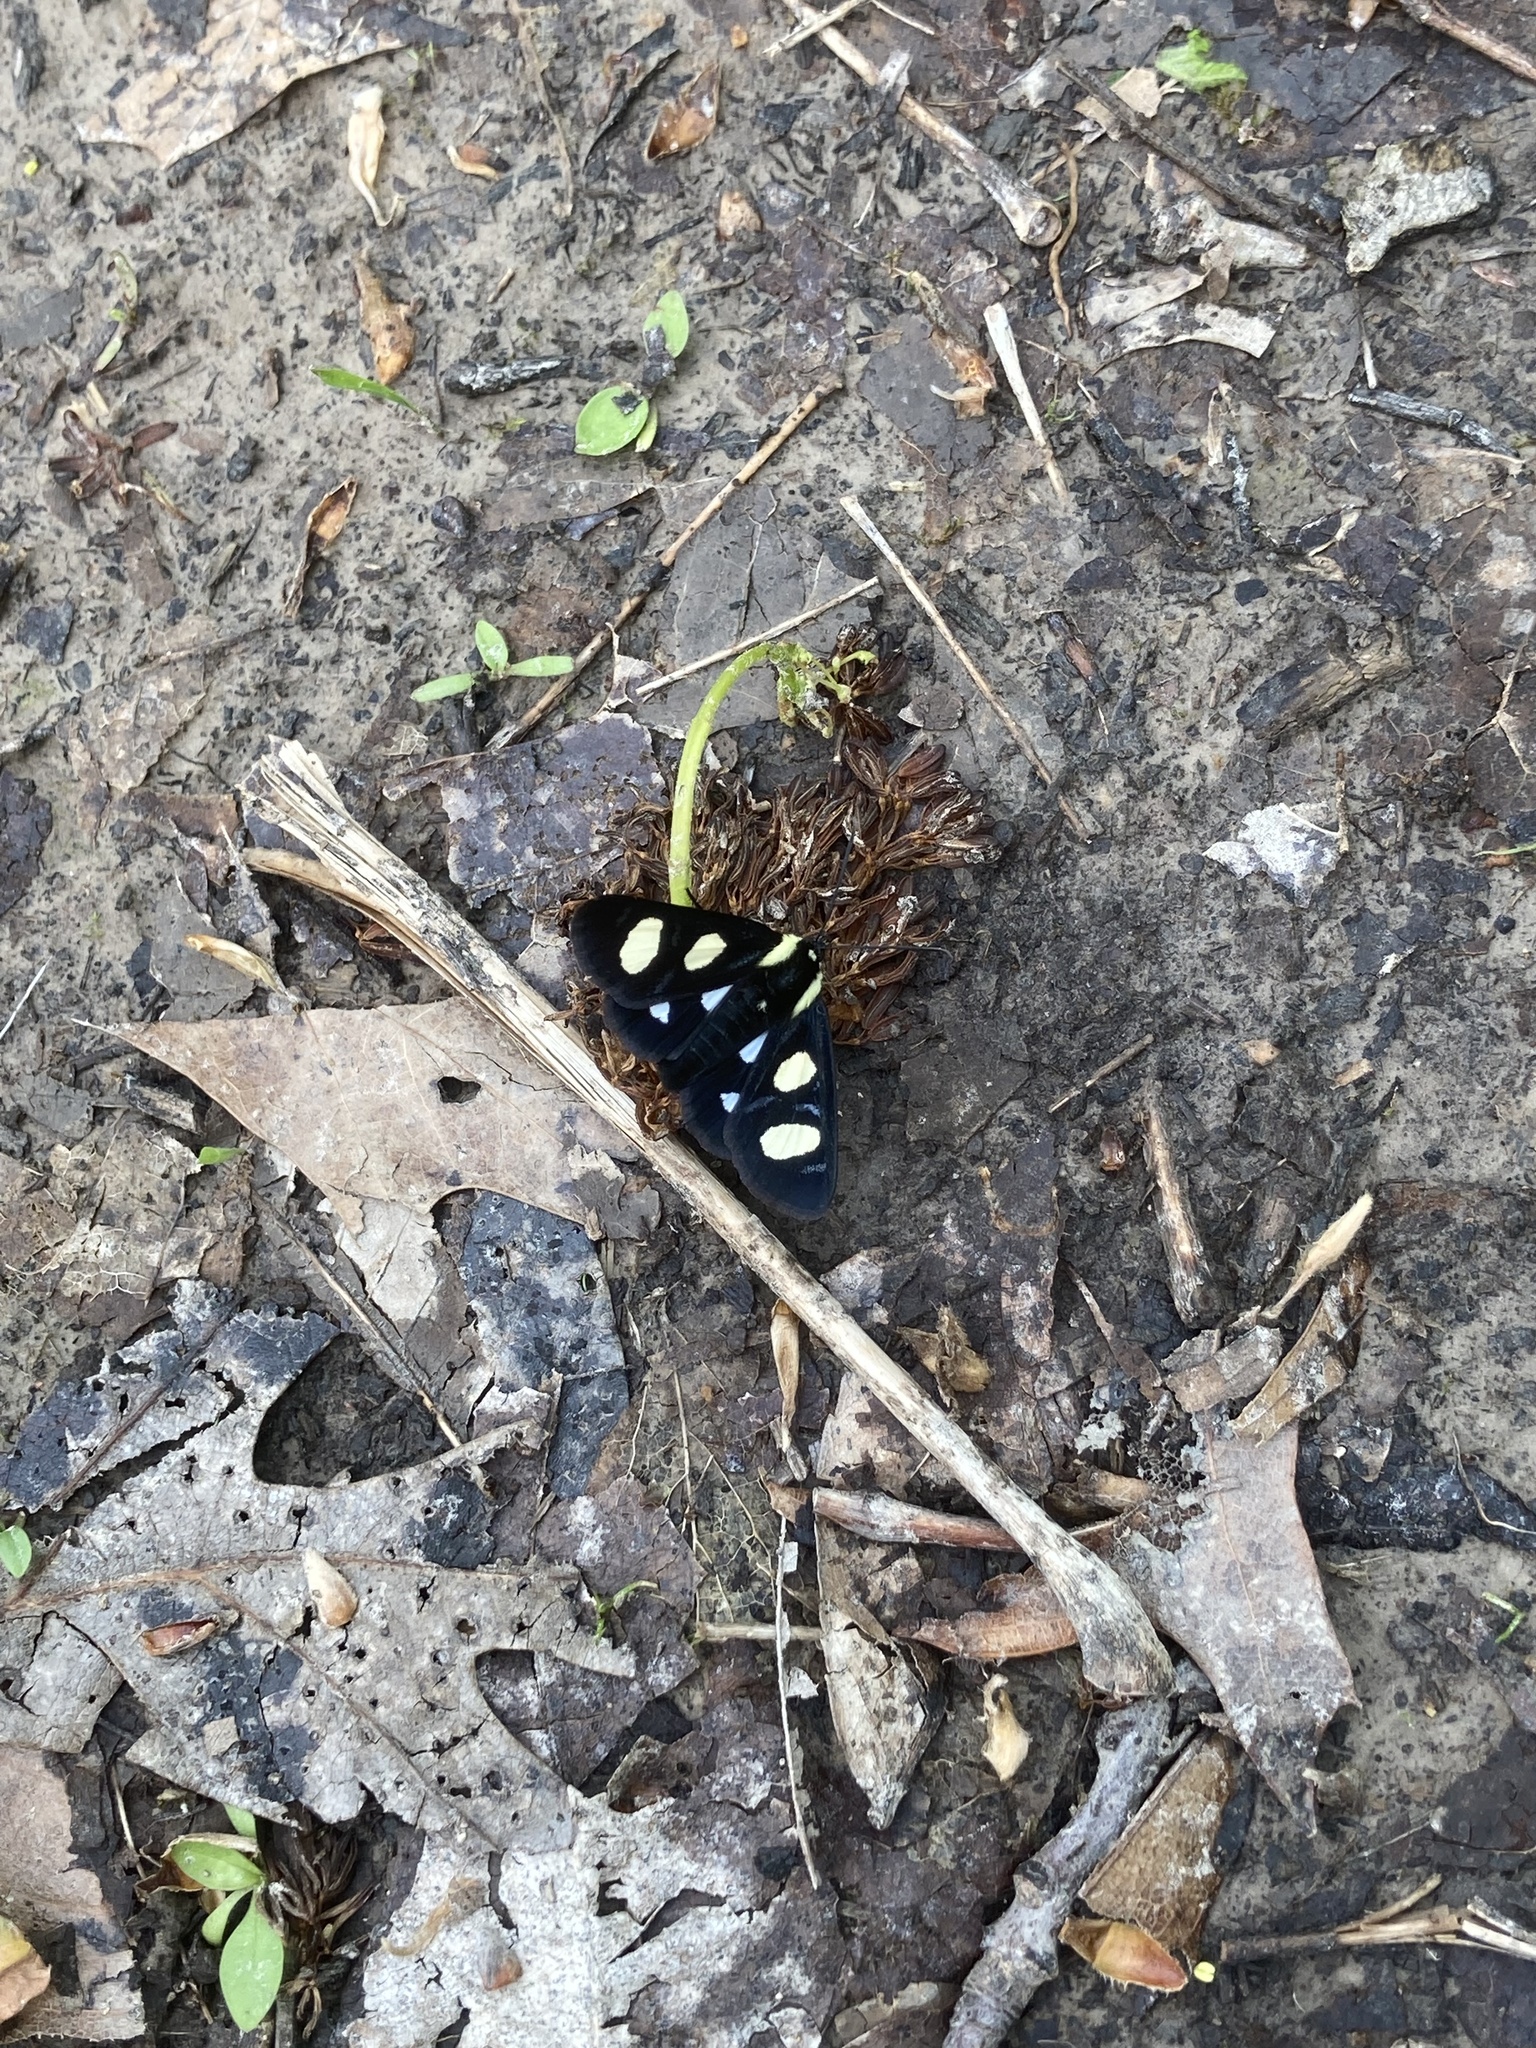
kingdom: Animalia
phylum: Arthropoda
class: Insecta
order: Lepidoptera
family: Noctuidae
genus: Alypia
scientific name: Alypia octomaculata
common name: Eight-spotted forester
